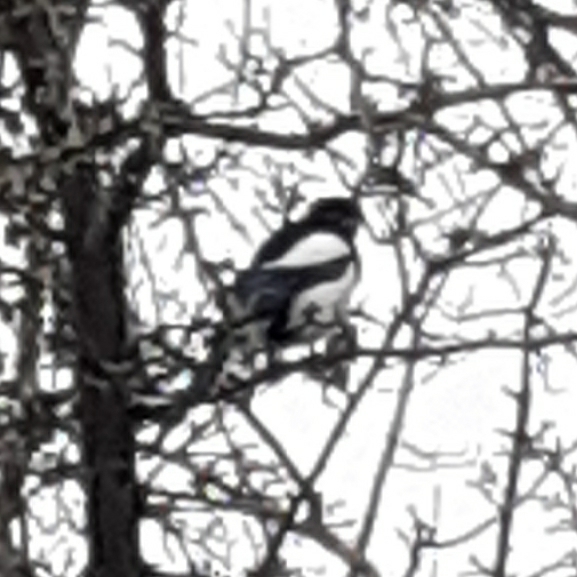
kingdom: Animalia
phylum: Chordata
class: Aves
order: Passeriformes
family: Corvidae
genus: Pica
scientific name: Pica pica
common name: Eurasian magpie
